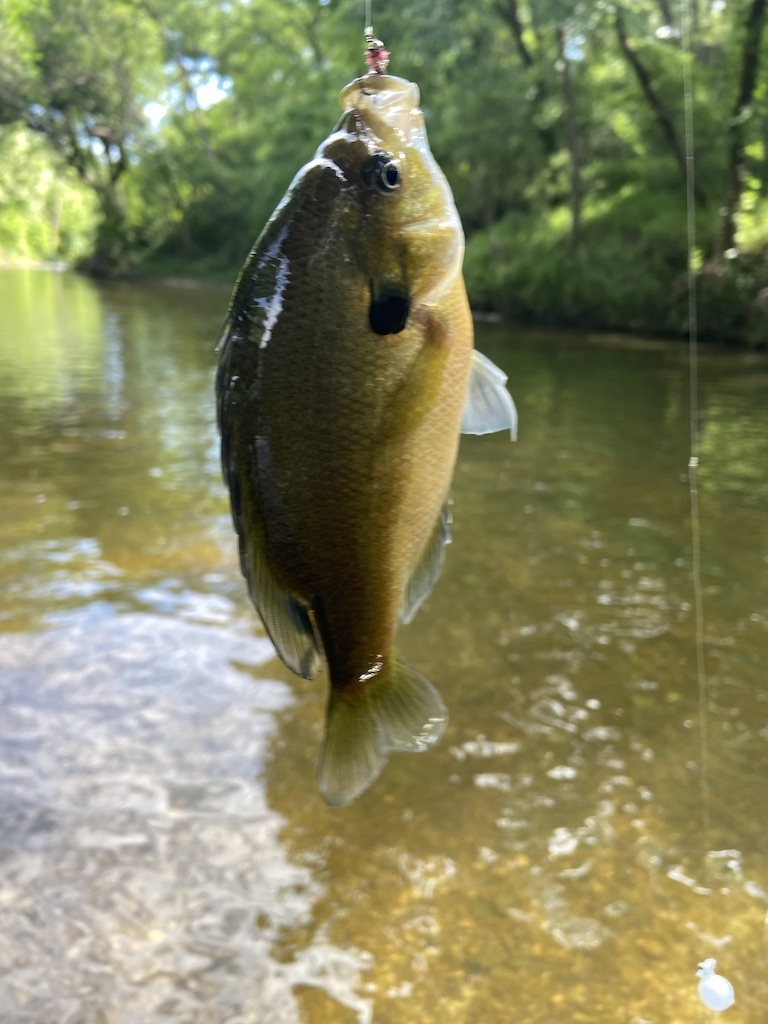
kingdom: Animalia
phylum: Chordata
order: Perciformes
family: Centrarchidae
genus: Lepomis
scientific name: Lepomis macrochirus
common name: Bluegill
